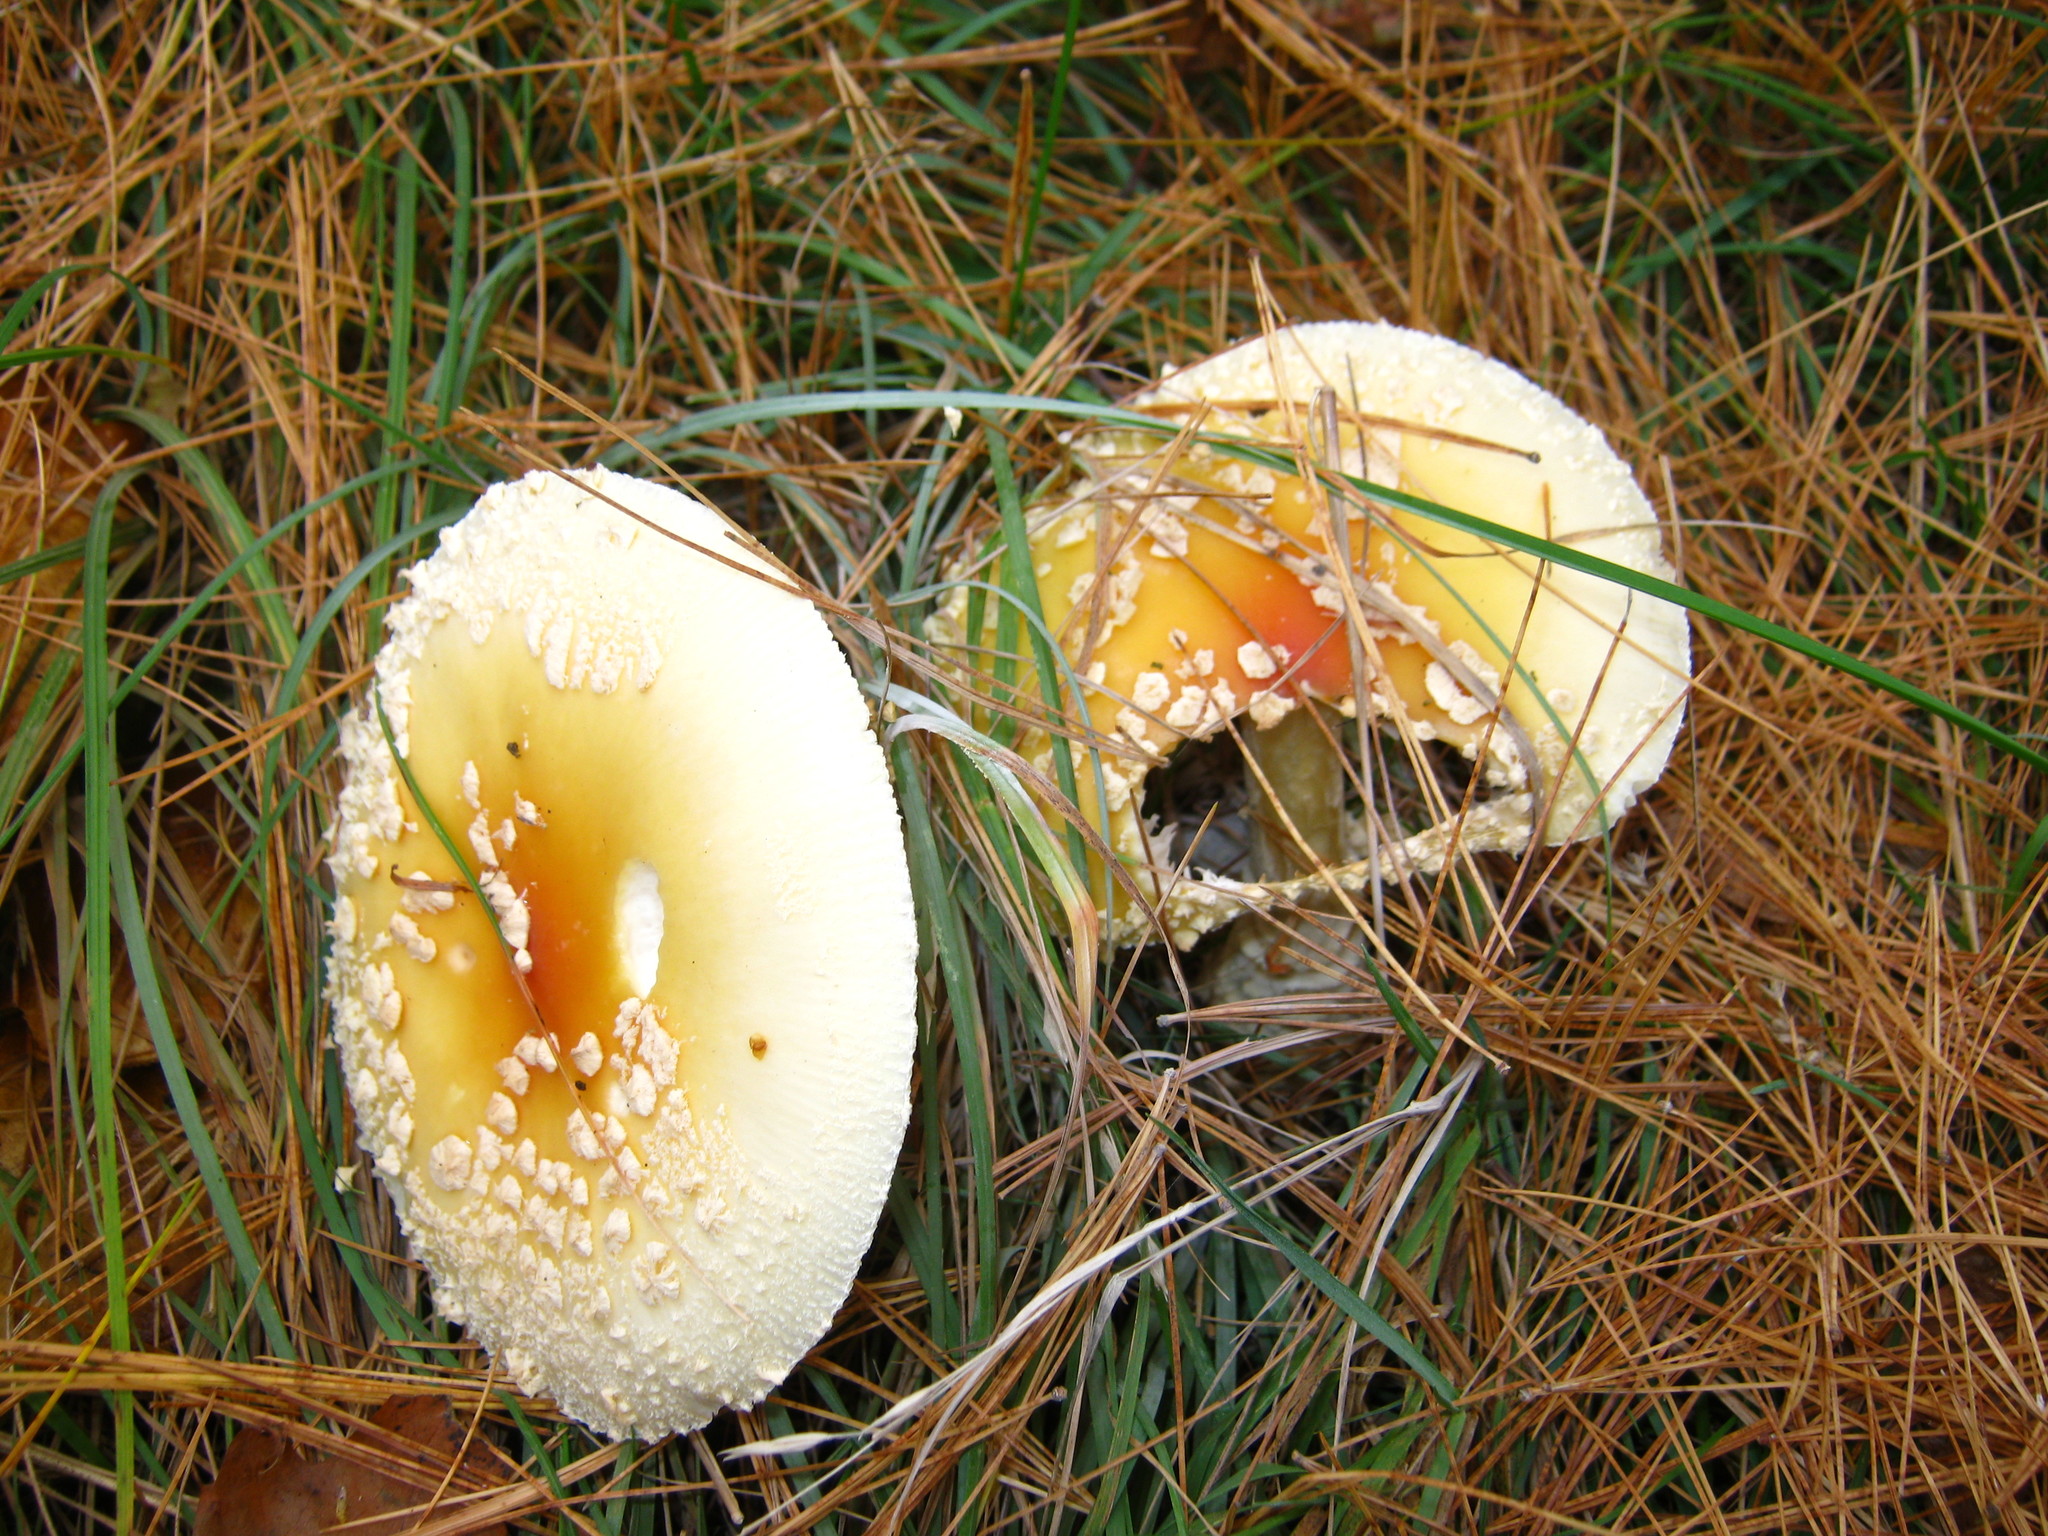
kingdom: Fungi
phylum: Basidiomycota
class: Agaricomycetes
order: Agaricales
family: Amanitaceae
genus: Amanita
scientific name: Amanita muscaria
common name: Fly agaric
